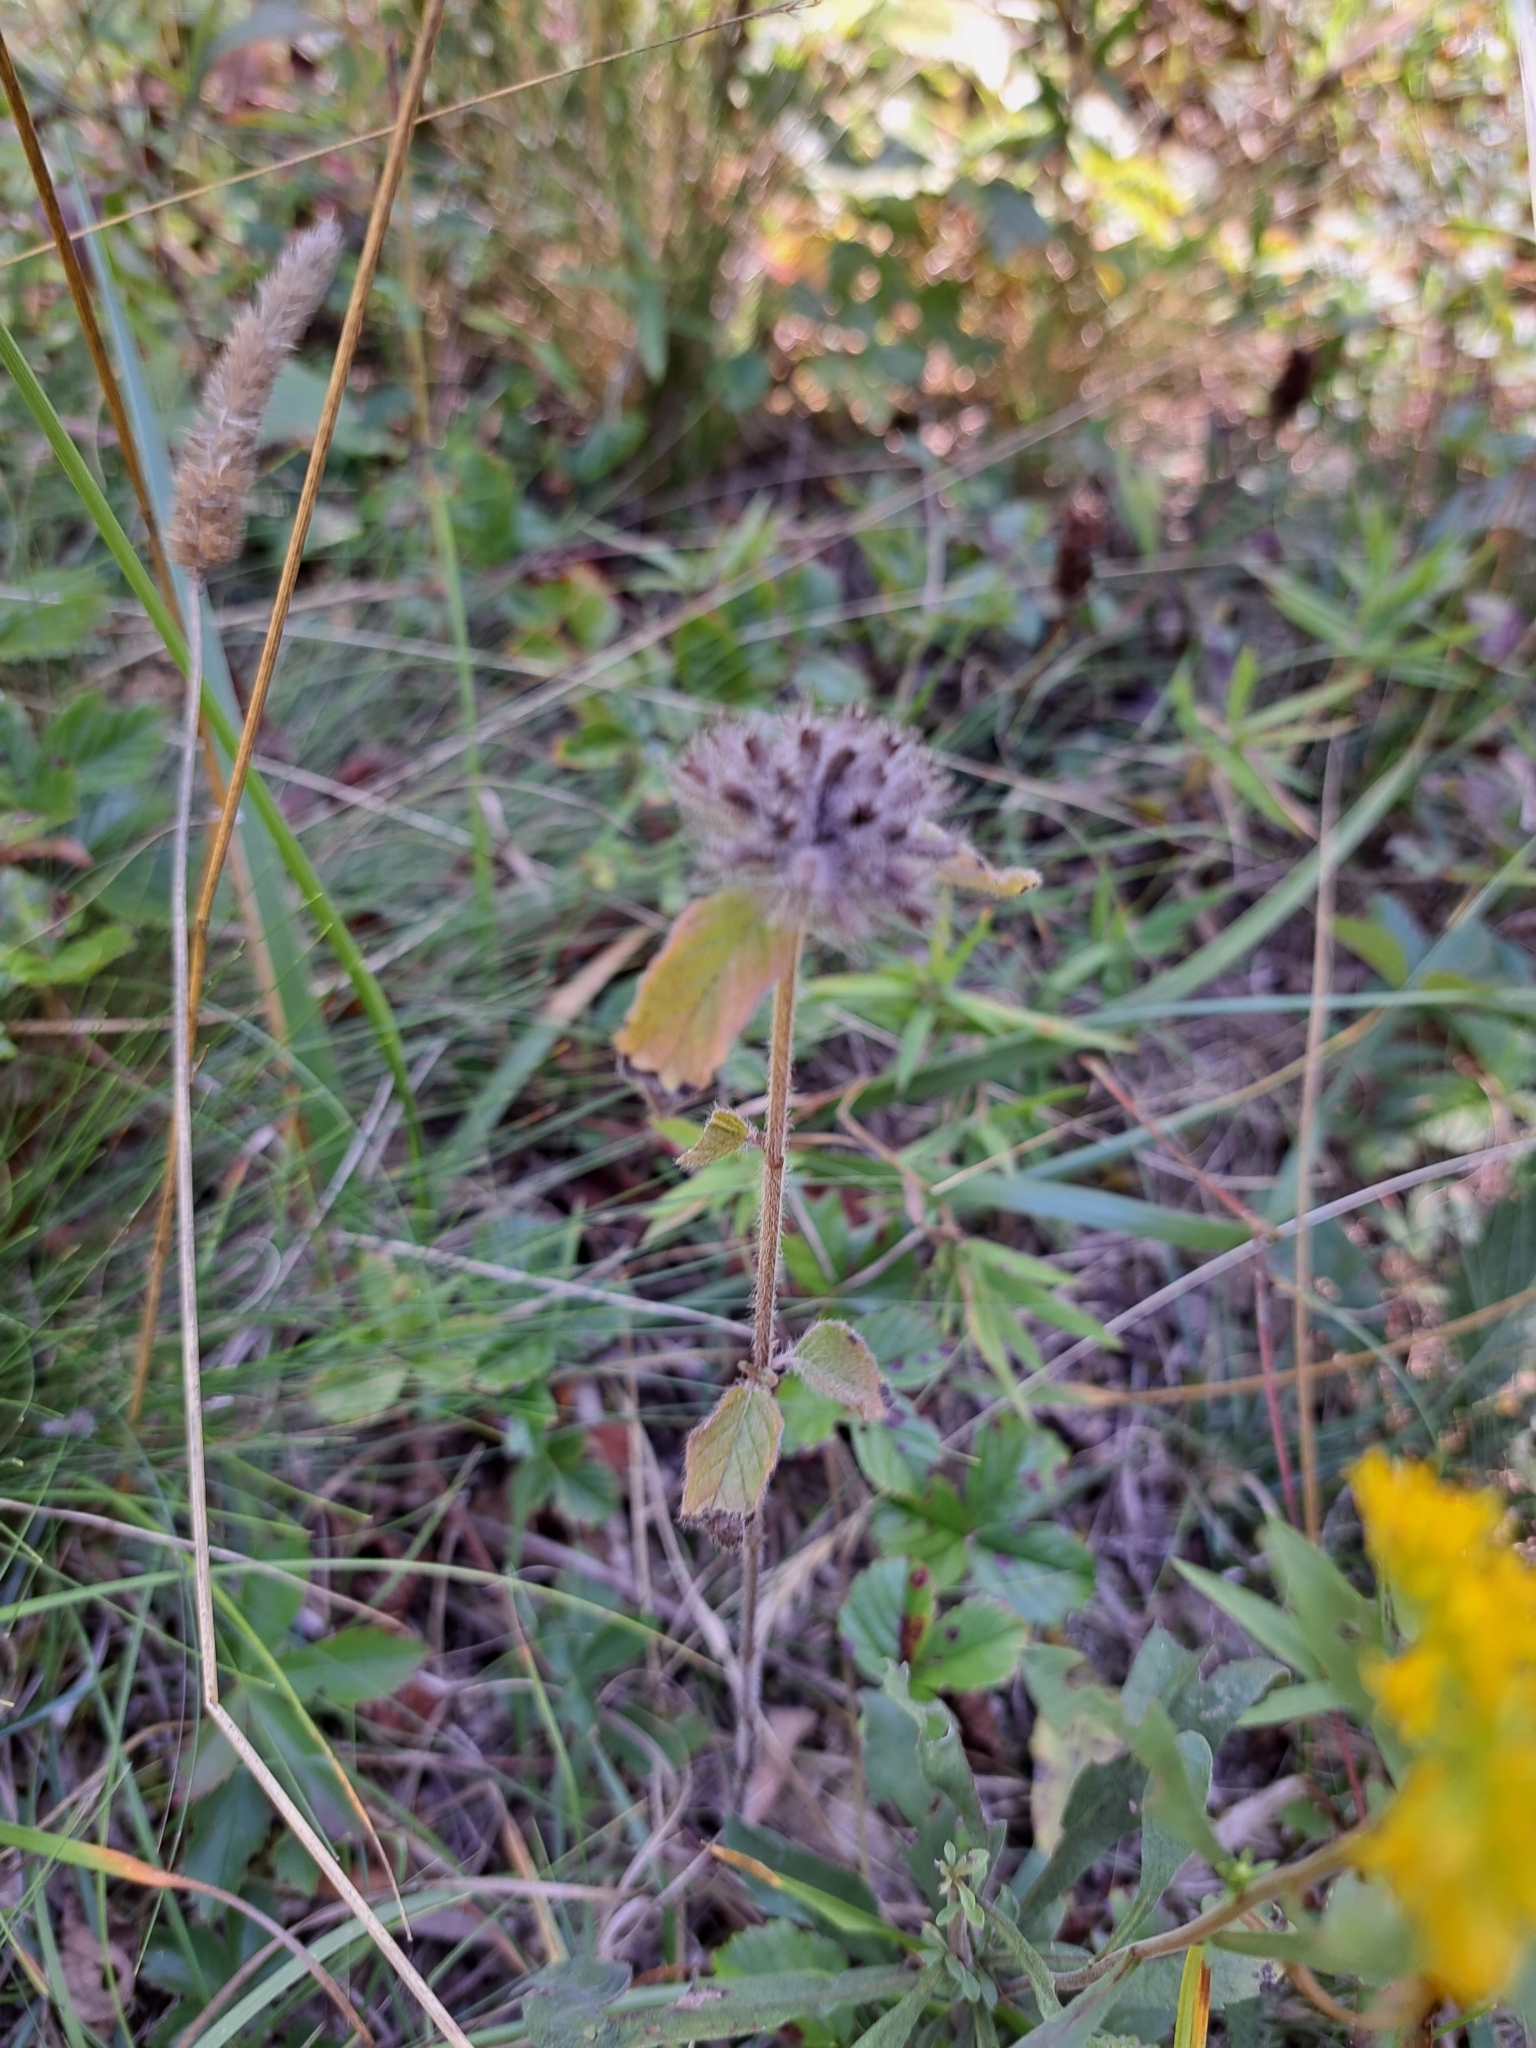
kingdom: Plantae
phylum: Tracheophyta
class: Magnoliopsida
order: Lamiales
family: Lamiaceae
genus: Clinopodium
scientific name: Clinopodium vulgare
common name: Wild basil
